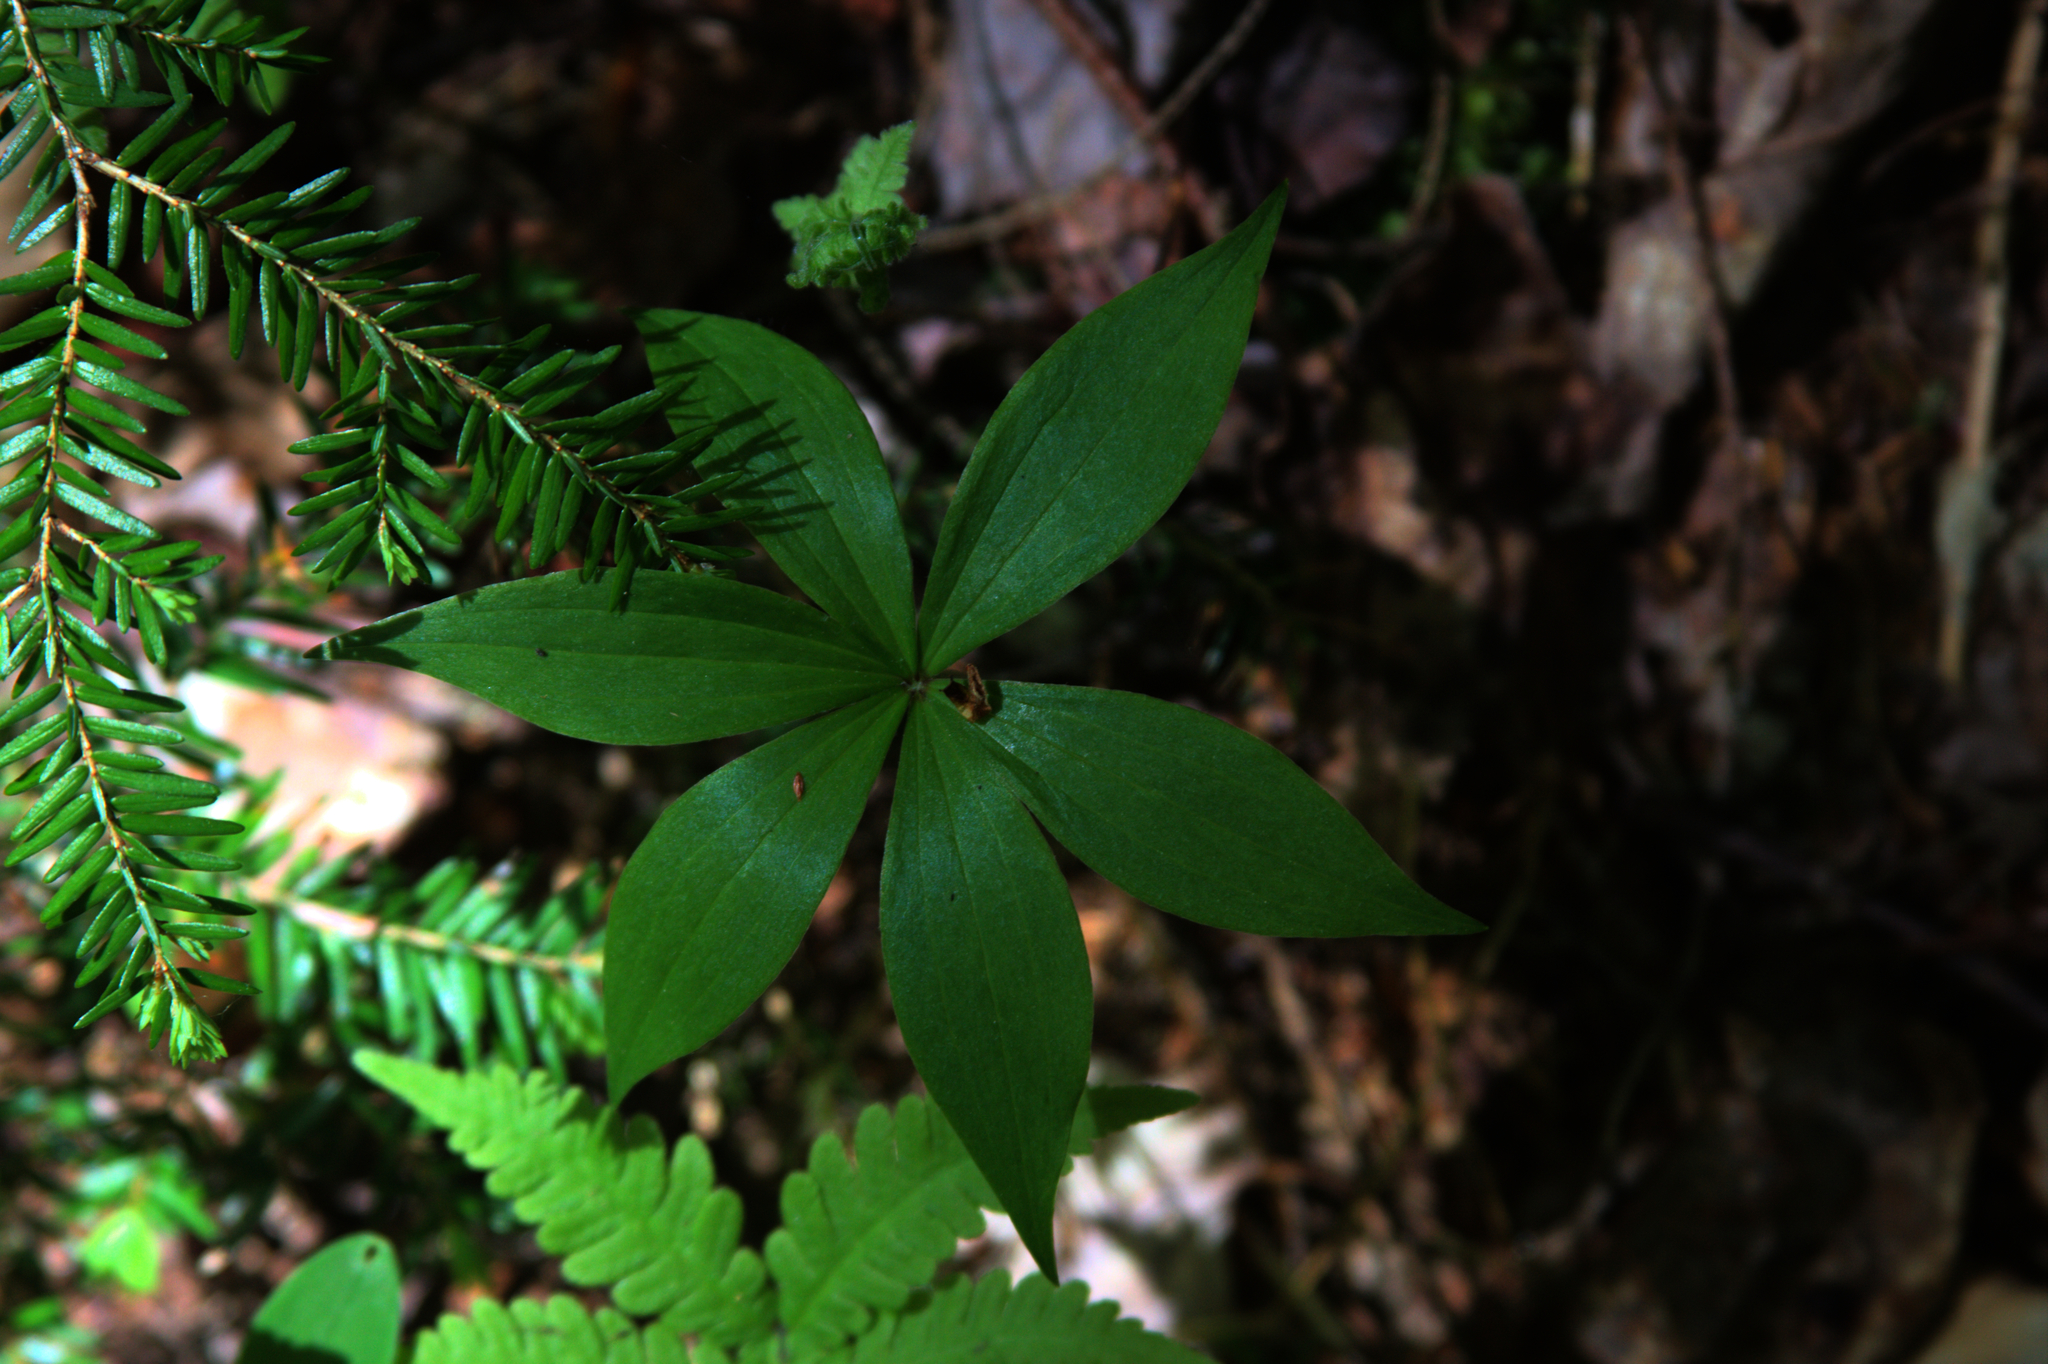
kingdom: Plantae
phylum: Tracheophyta
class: Pinopsida
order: Pinales
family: Pinaceae
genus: Tsuga
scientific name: Tsuga canadensis
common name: Eastern hemlock
